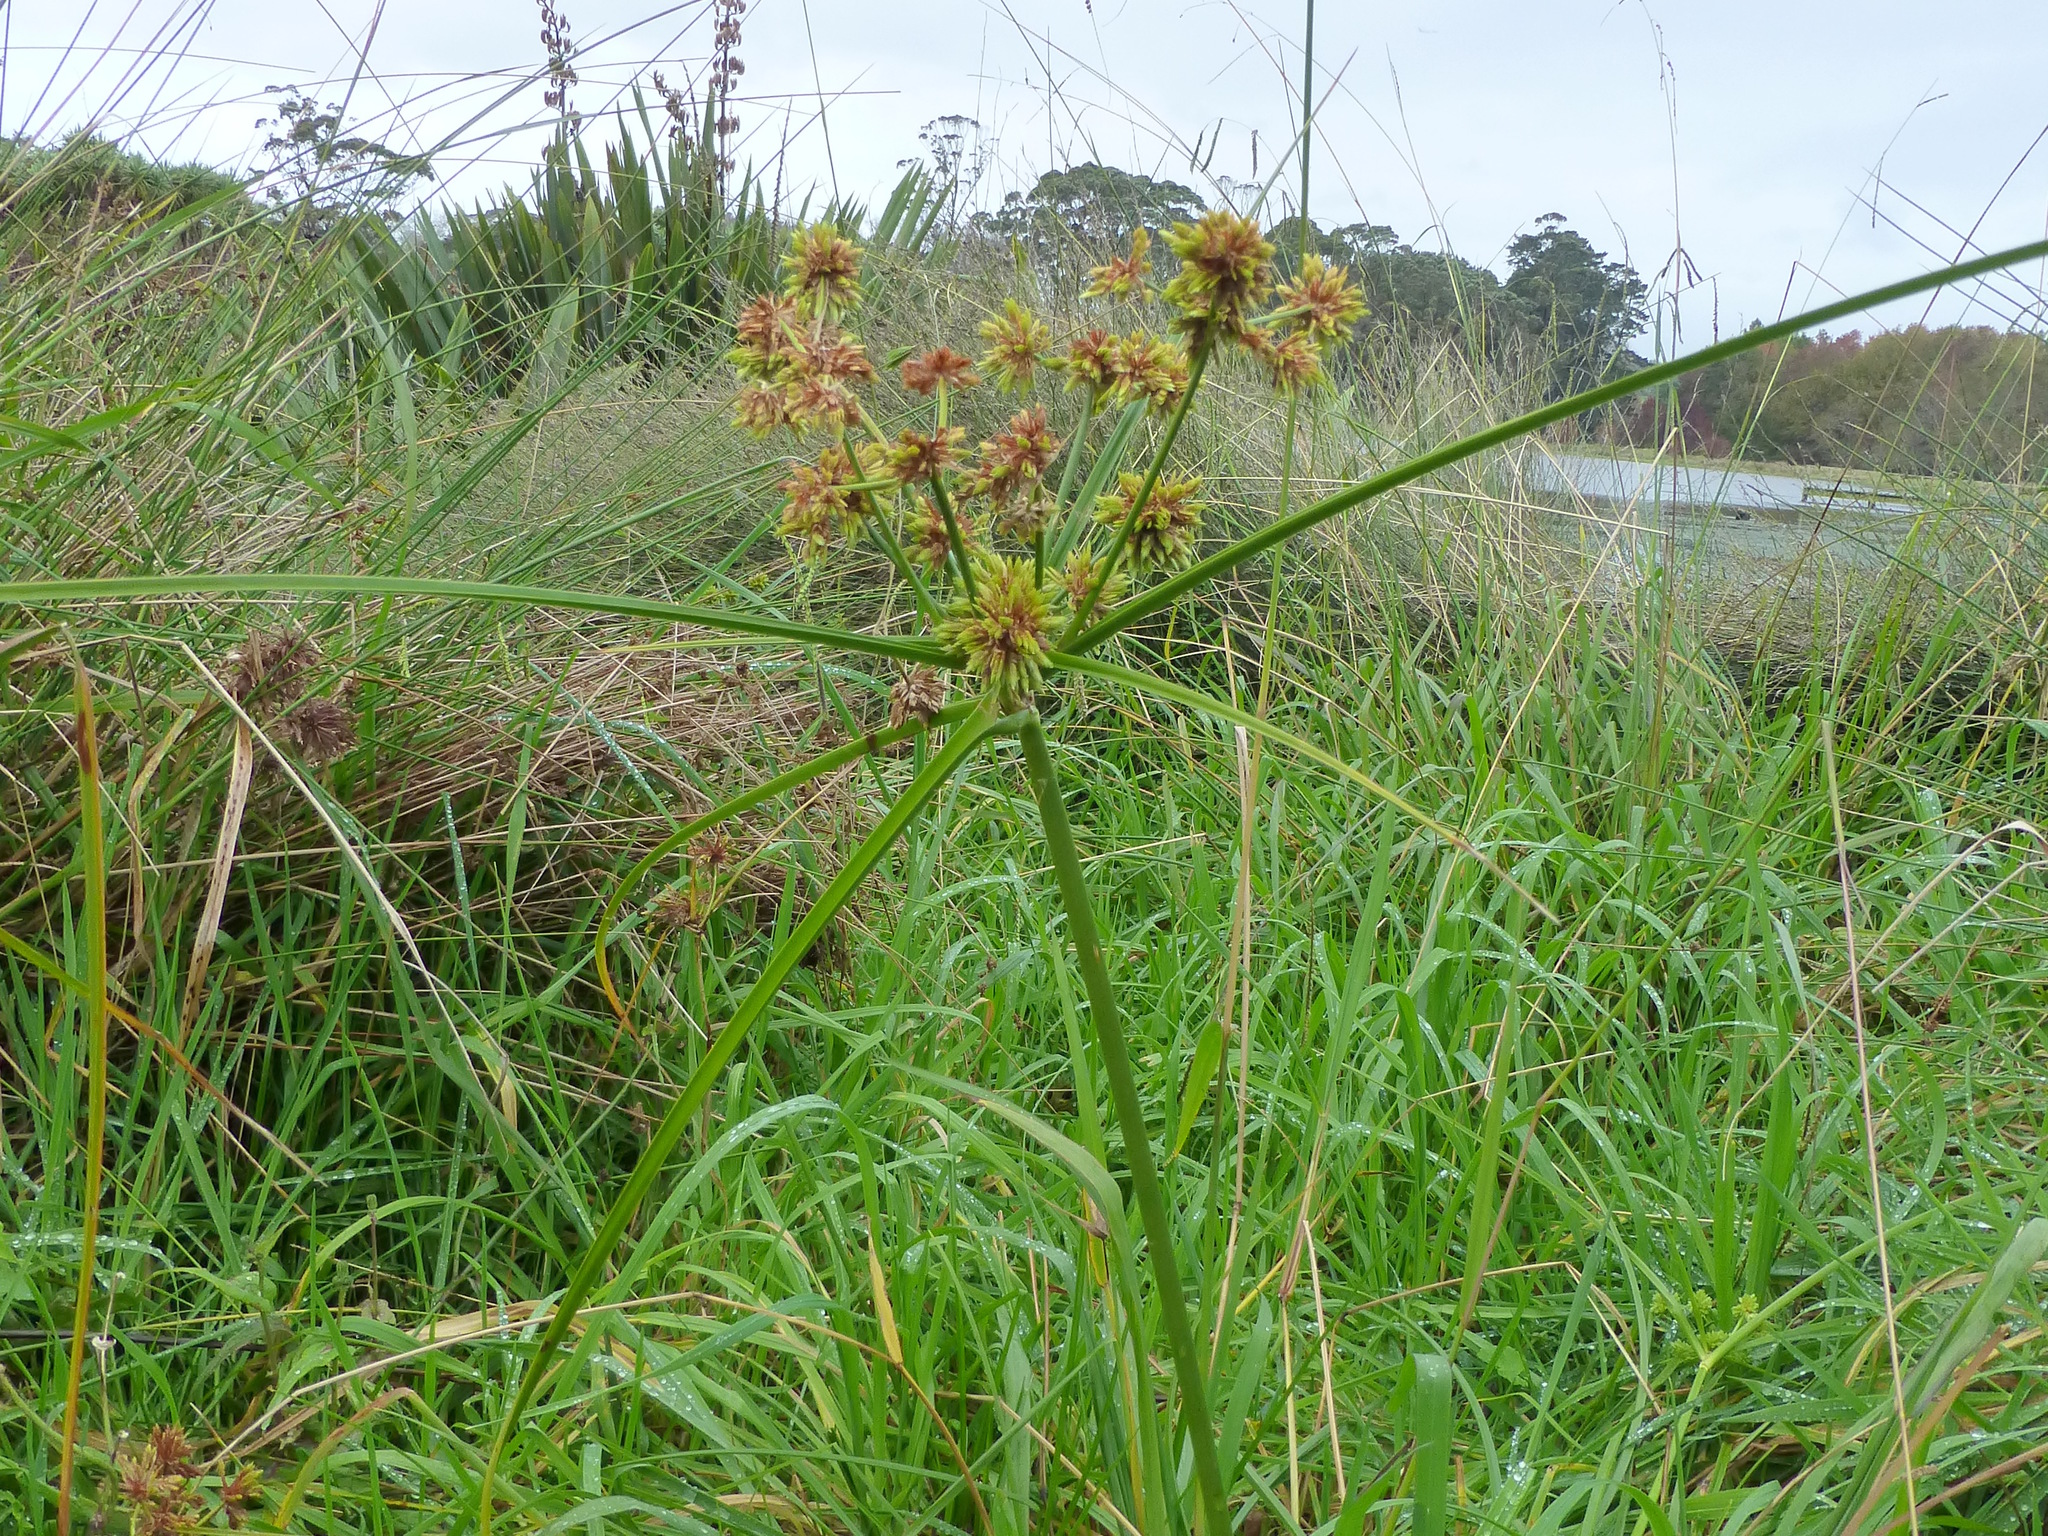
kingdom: Plantae
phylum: Tracheophyta
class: Liliopsida
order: Poales
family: Cyperaceae
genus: Cyperus
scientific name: Cyperus eragrostis
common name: Tall flatsedge
